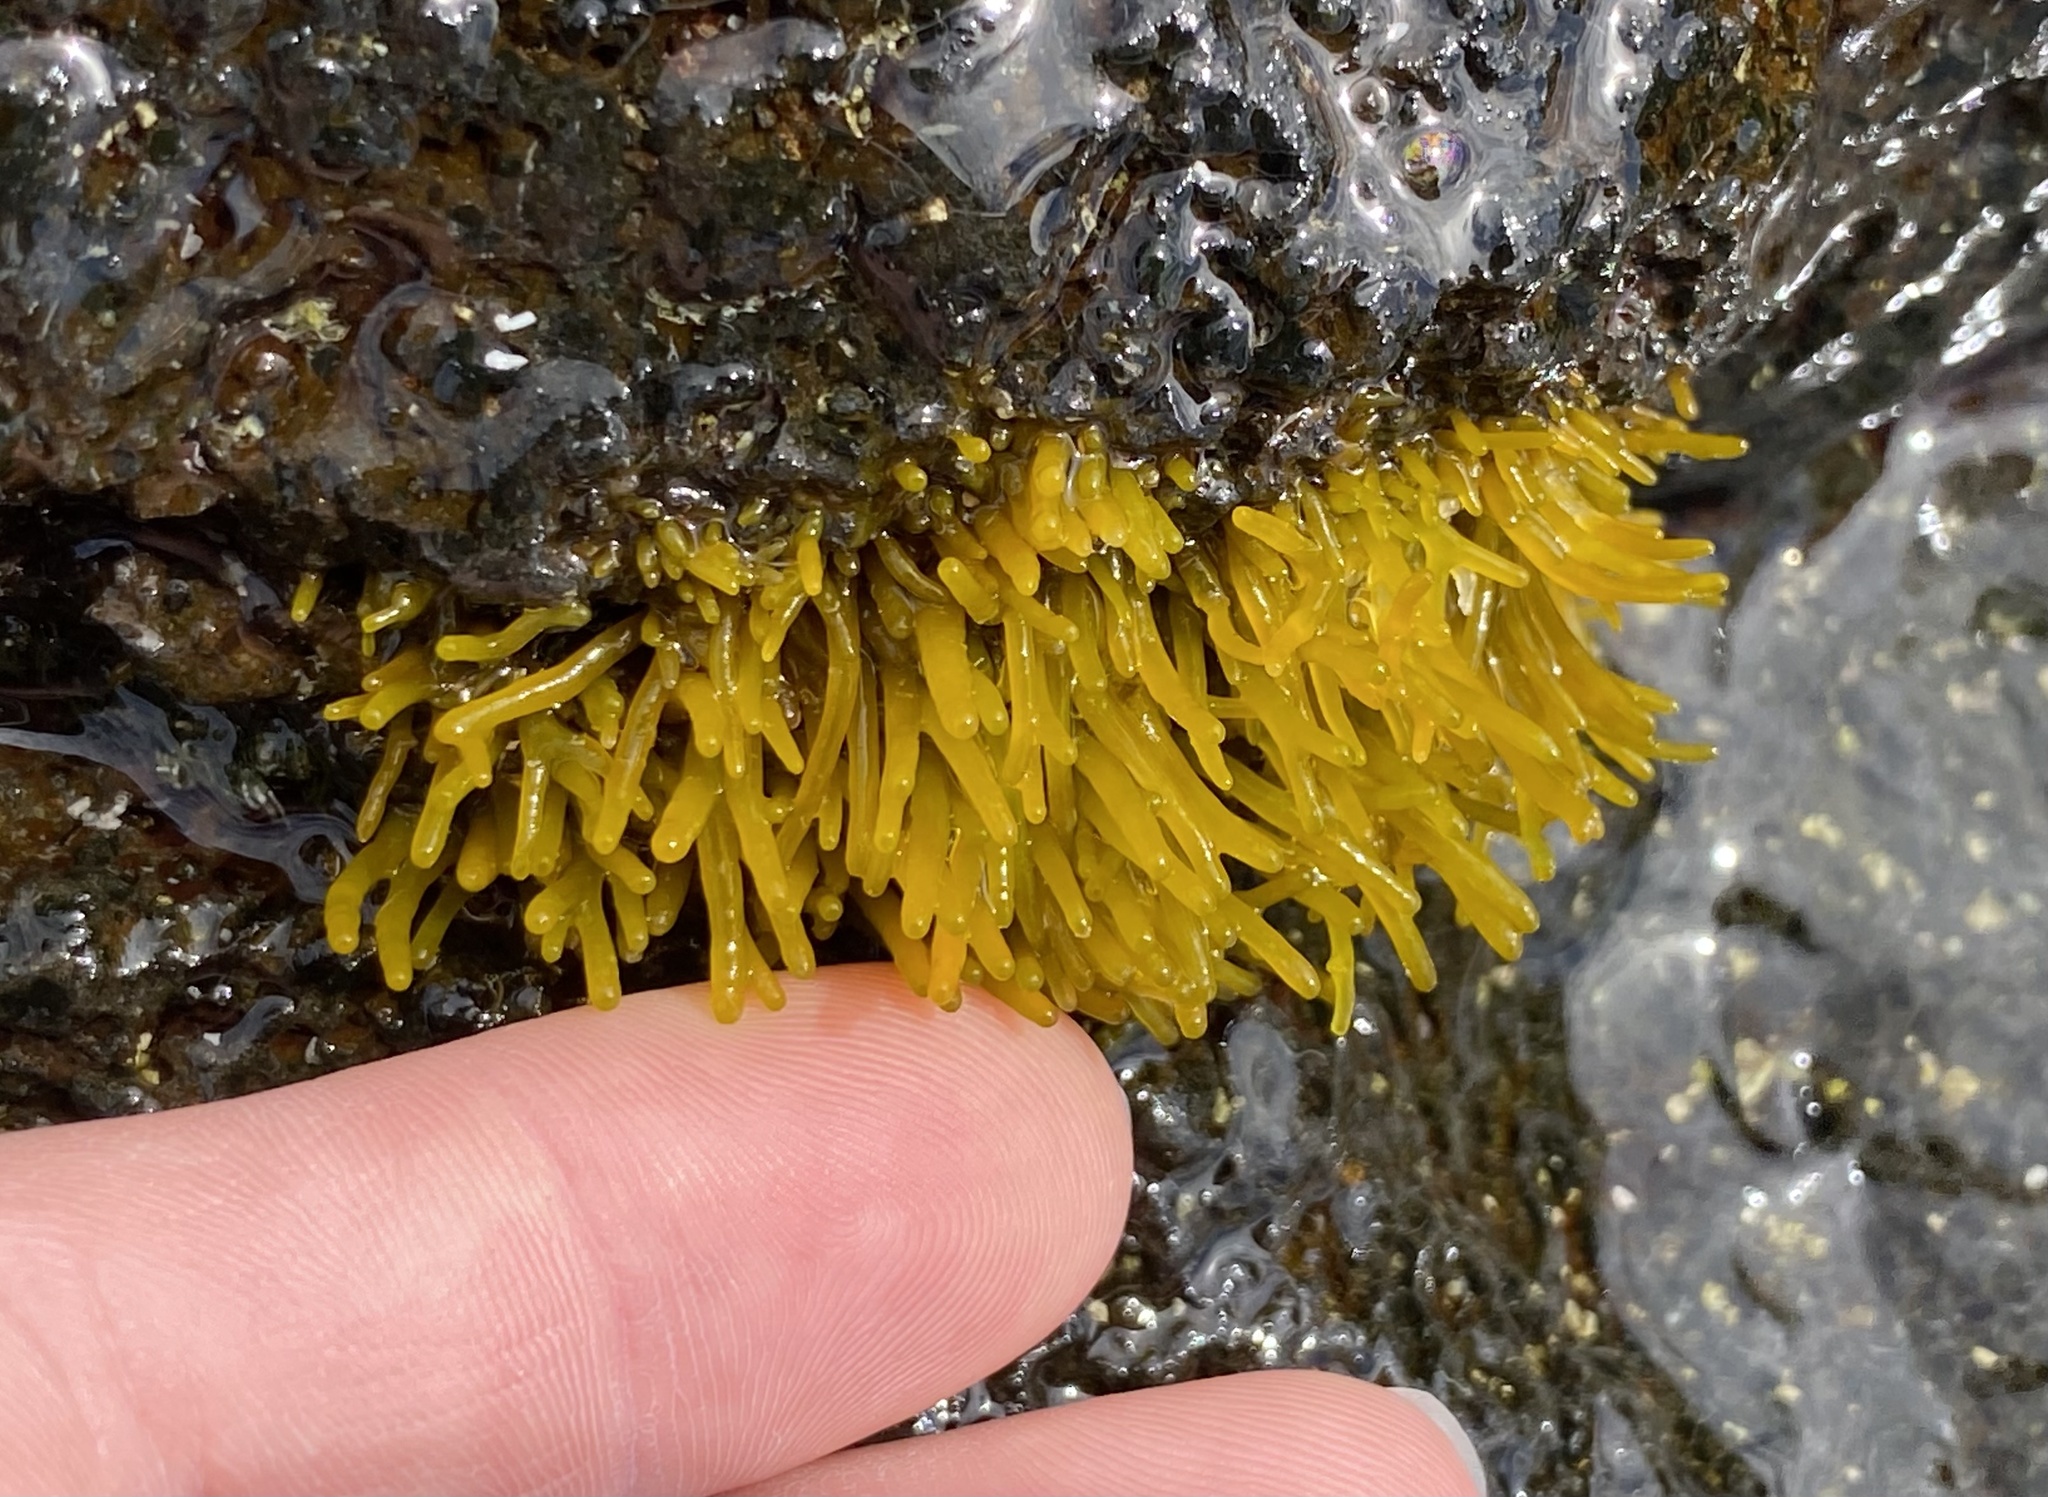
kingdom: Plantae
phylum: Rhodophyta
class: Florideophyceae
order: Gigartinales
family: Phyllophoraceae
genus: Gymnogongrus
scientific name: Gymnogongrus durvillei
